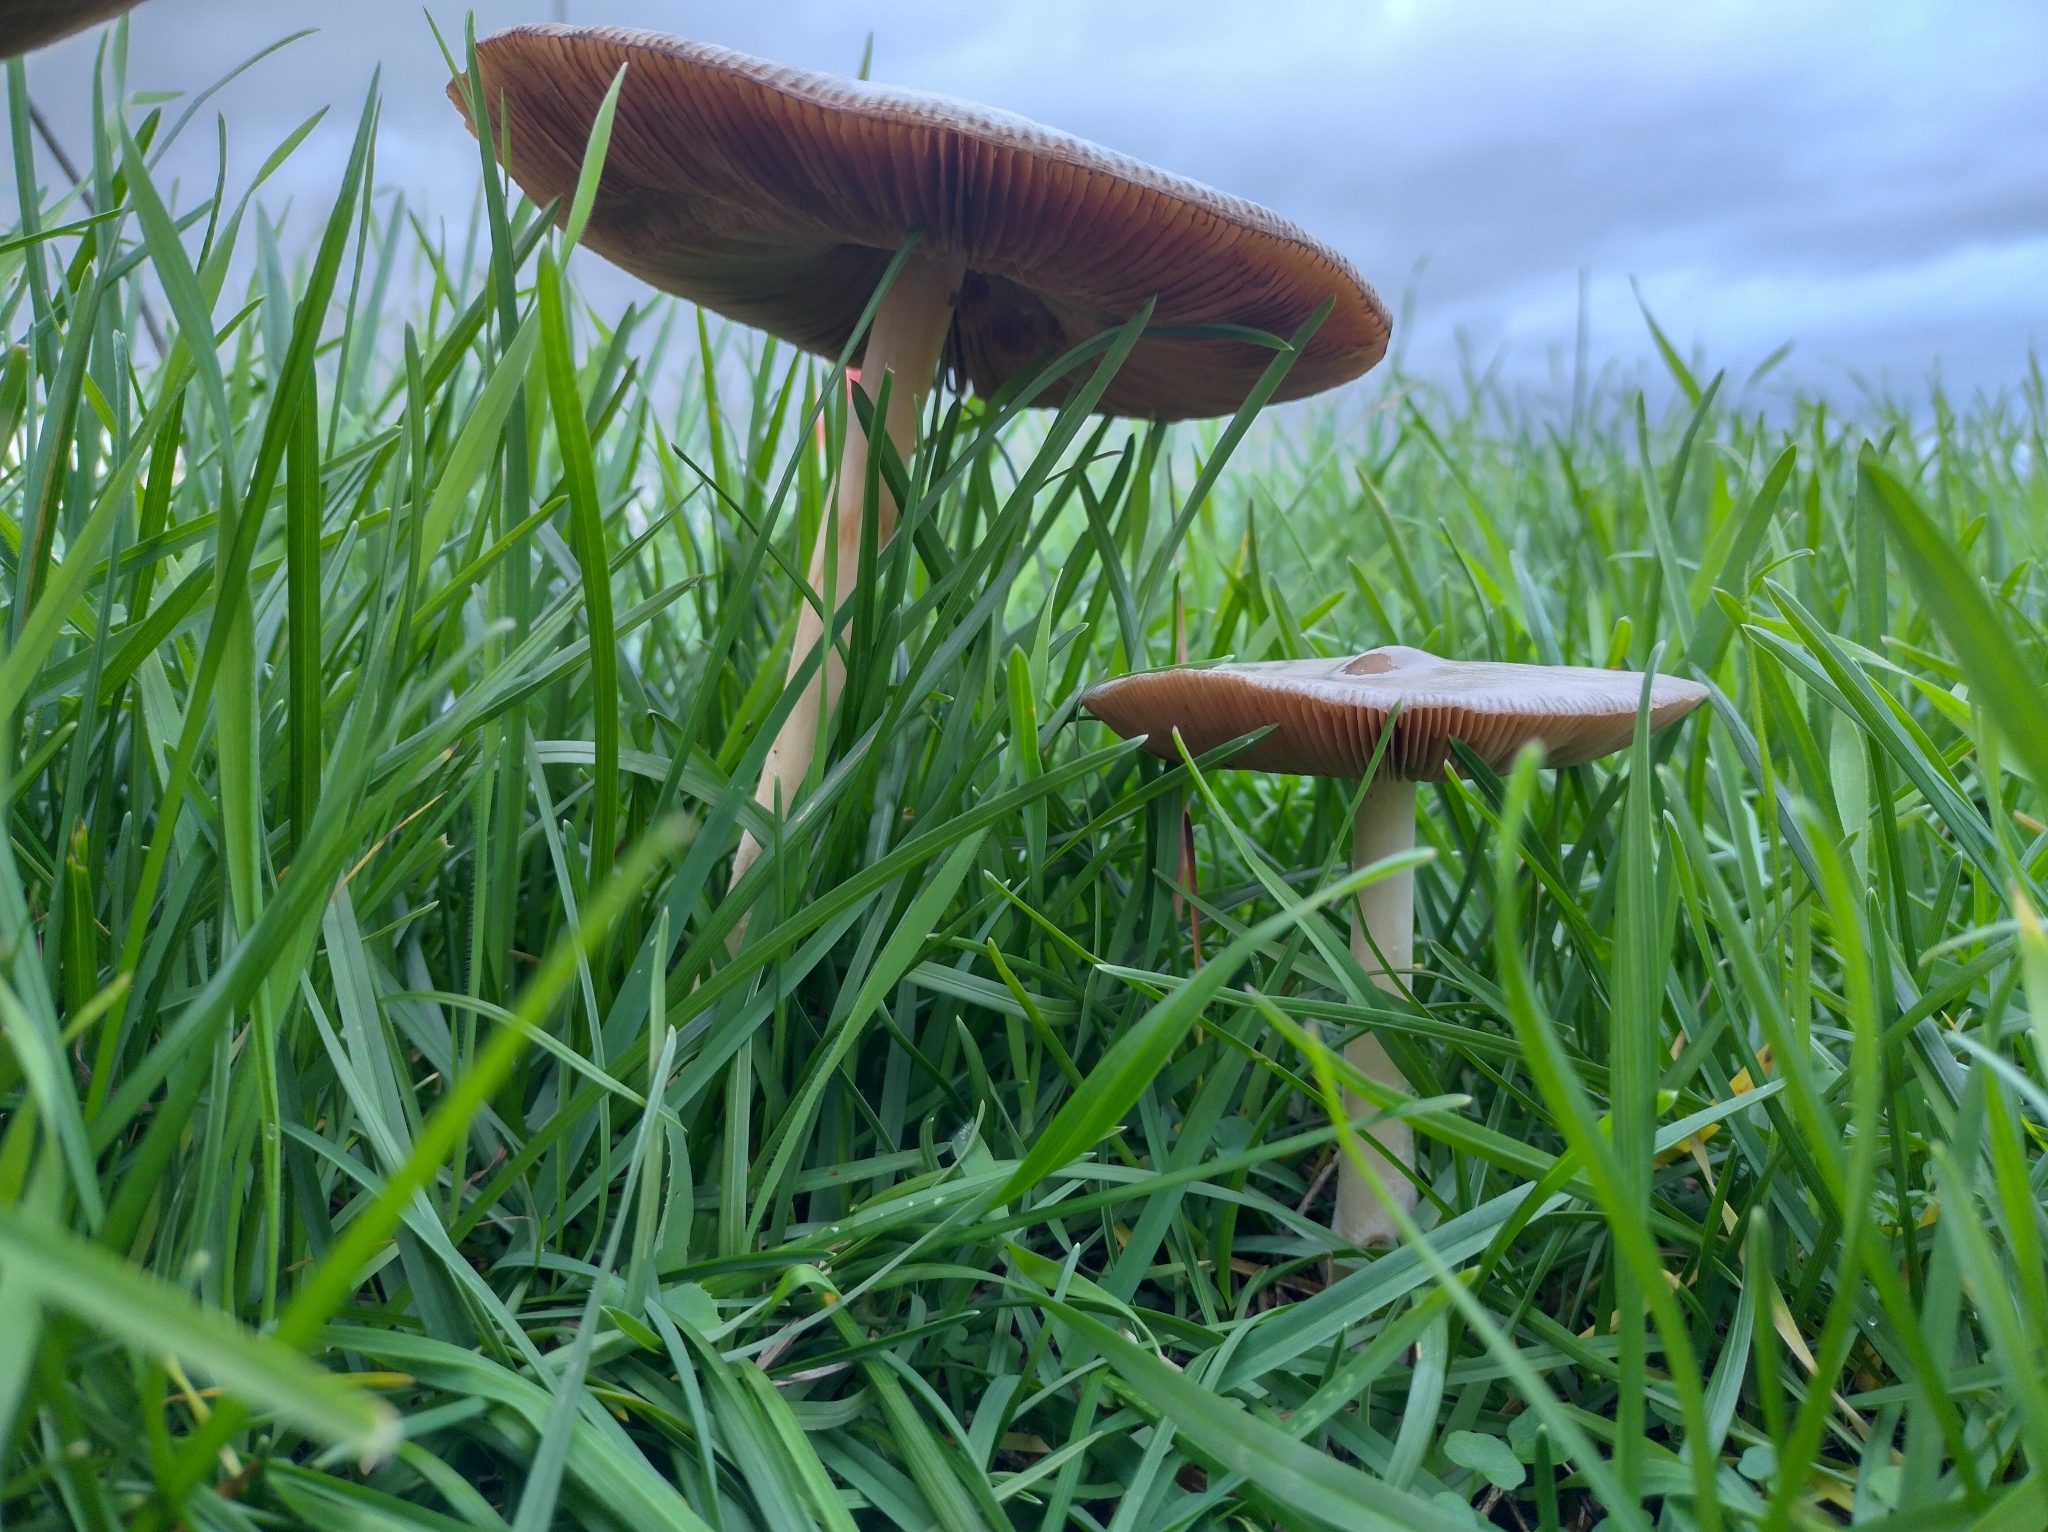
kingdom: Fungi
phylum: Basidiomycota
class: Agaricomycetes
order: Agaricales
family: Pluteaceae
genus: Volvopluteus
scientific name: Volvopluteus gloiocephalus
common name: Stubble rosegill
